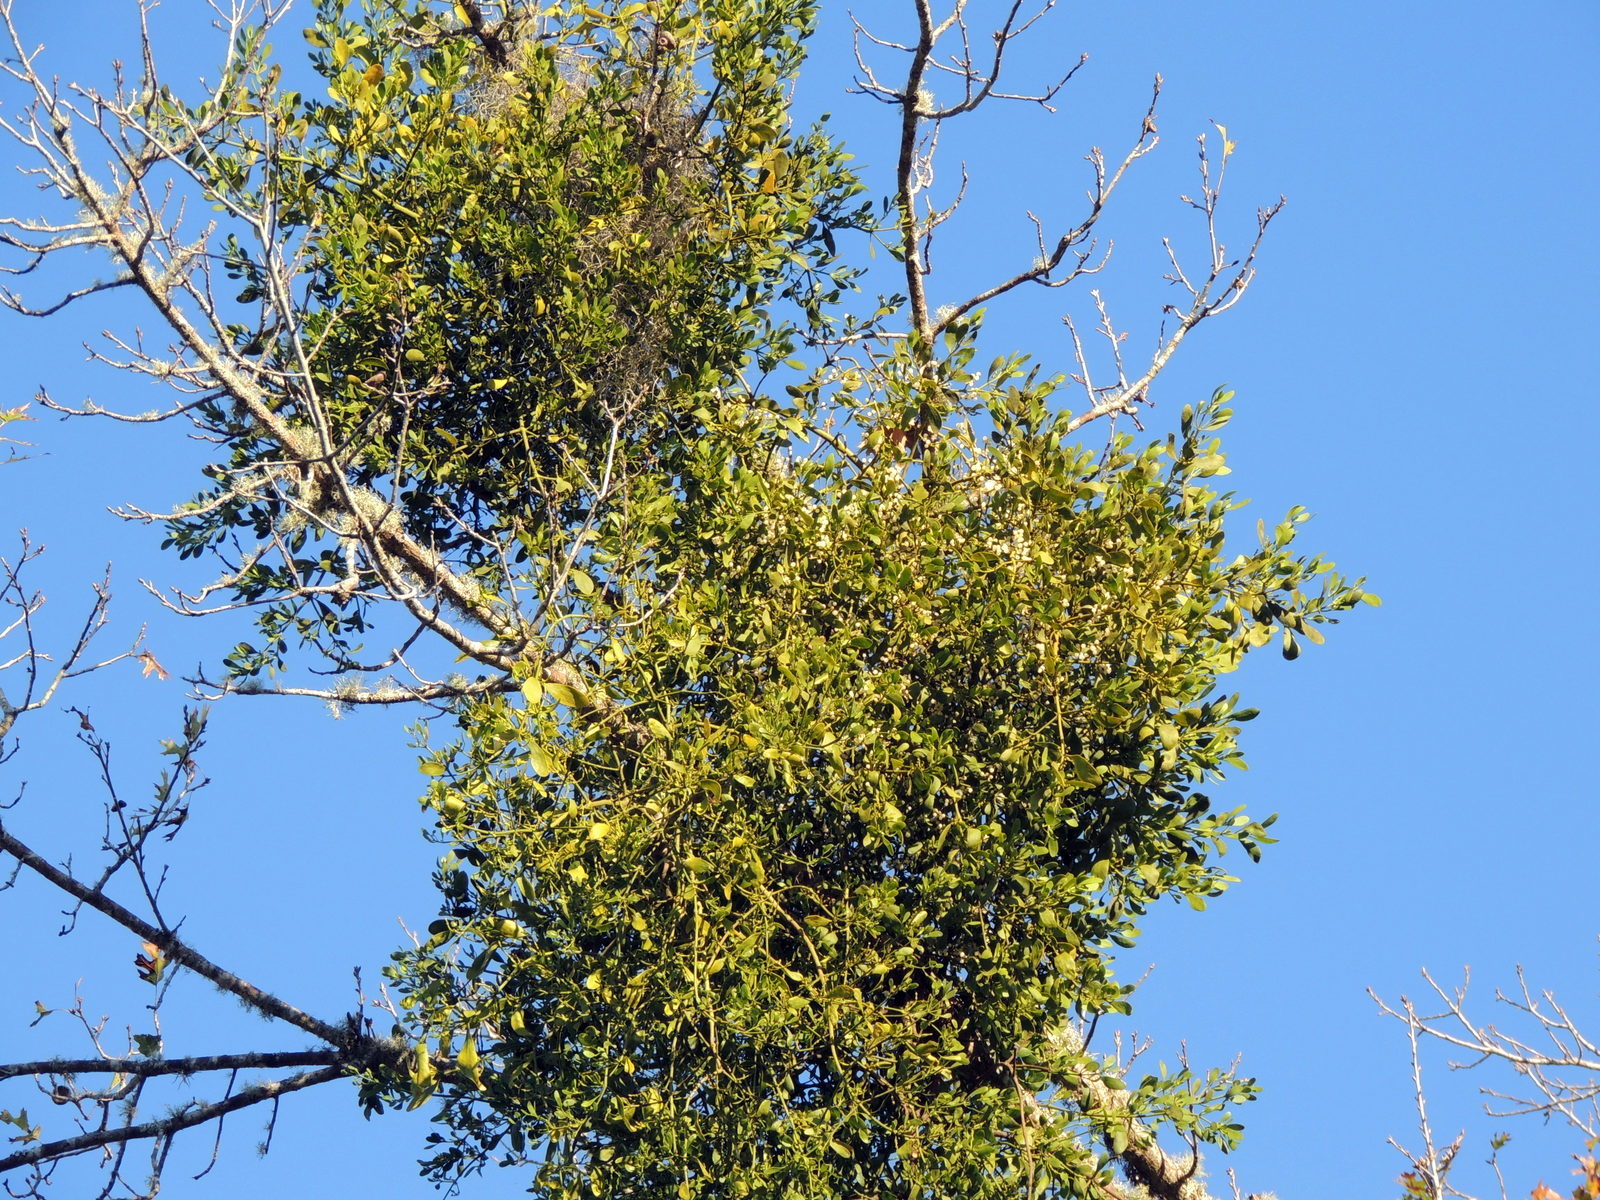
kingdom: Plantae
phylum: Tracheophyta
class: Magnoliopsida
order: Santalales
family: Viscaceae
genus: Phoradendron
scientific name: Phoradendron leucarpum
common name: Pacific mistletoe
